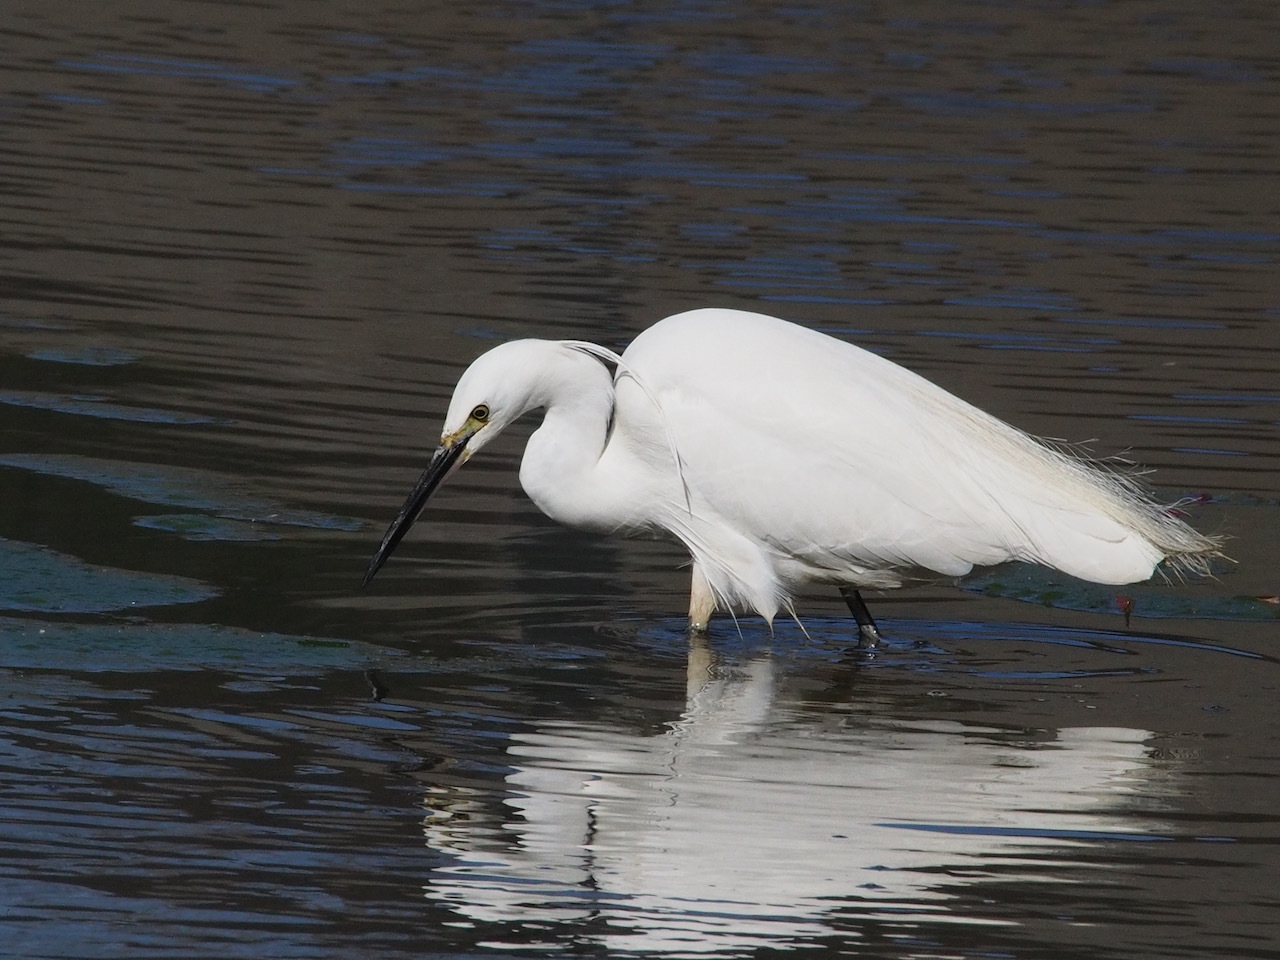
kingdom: Animalia
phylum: Chordata
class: Aves
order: Pelecaniformes
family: Ardeidae
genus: Egretta
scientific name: Egretta garzetta
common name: Little egret
